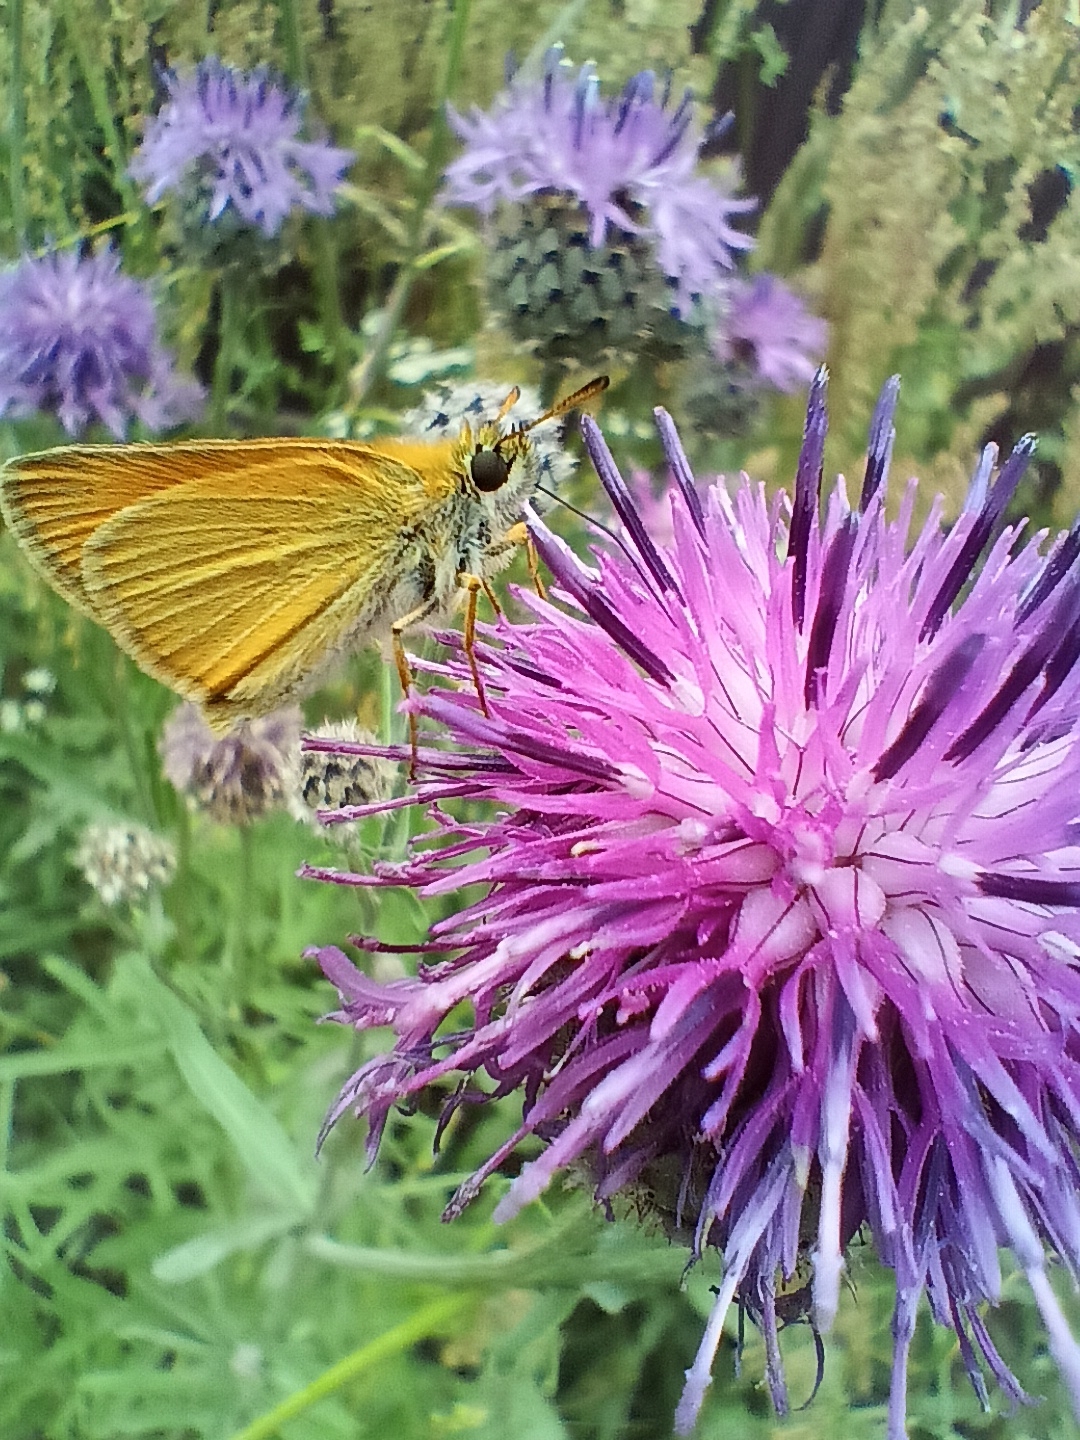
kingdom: Animalia
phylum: Arthropoda
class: Insecta
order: Lepidoptera
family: Hesperiidae
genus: Thymelicus
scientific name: Thymelicus lineola
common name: Essex skipper
